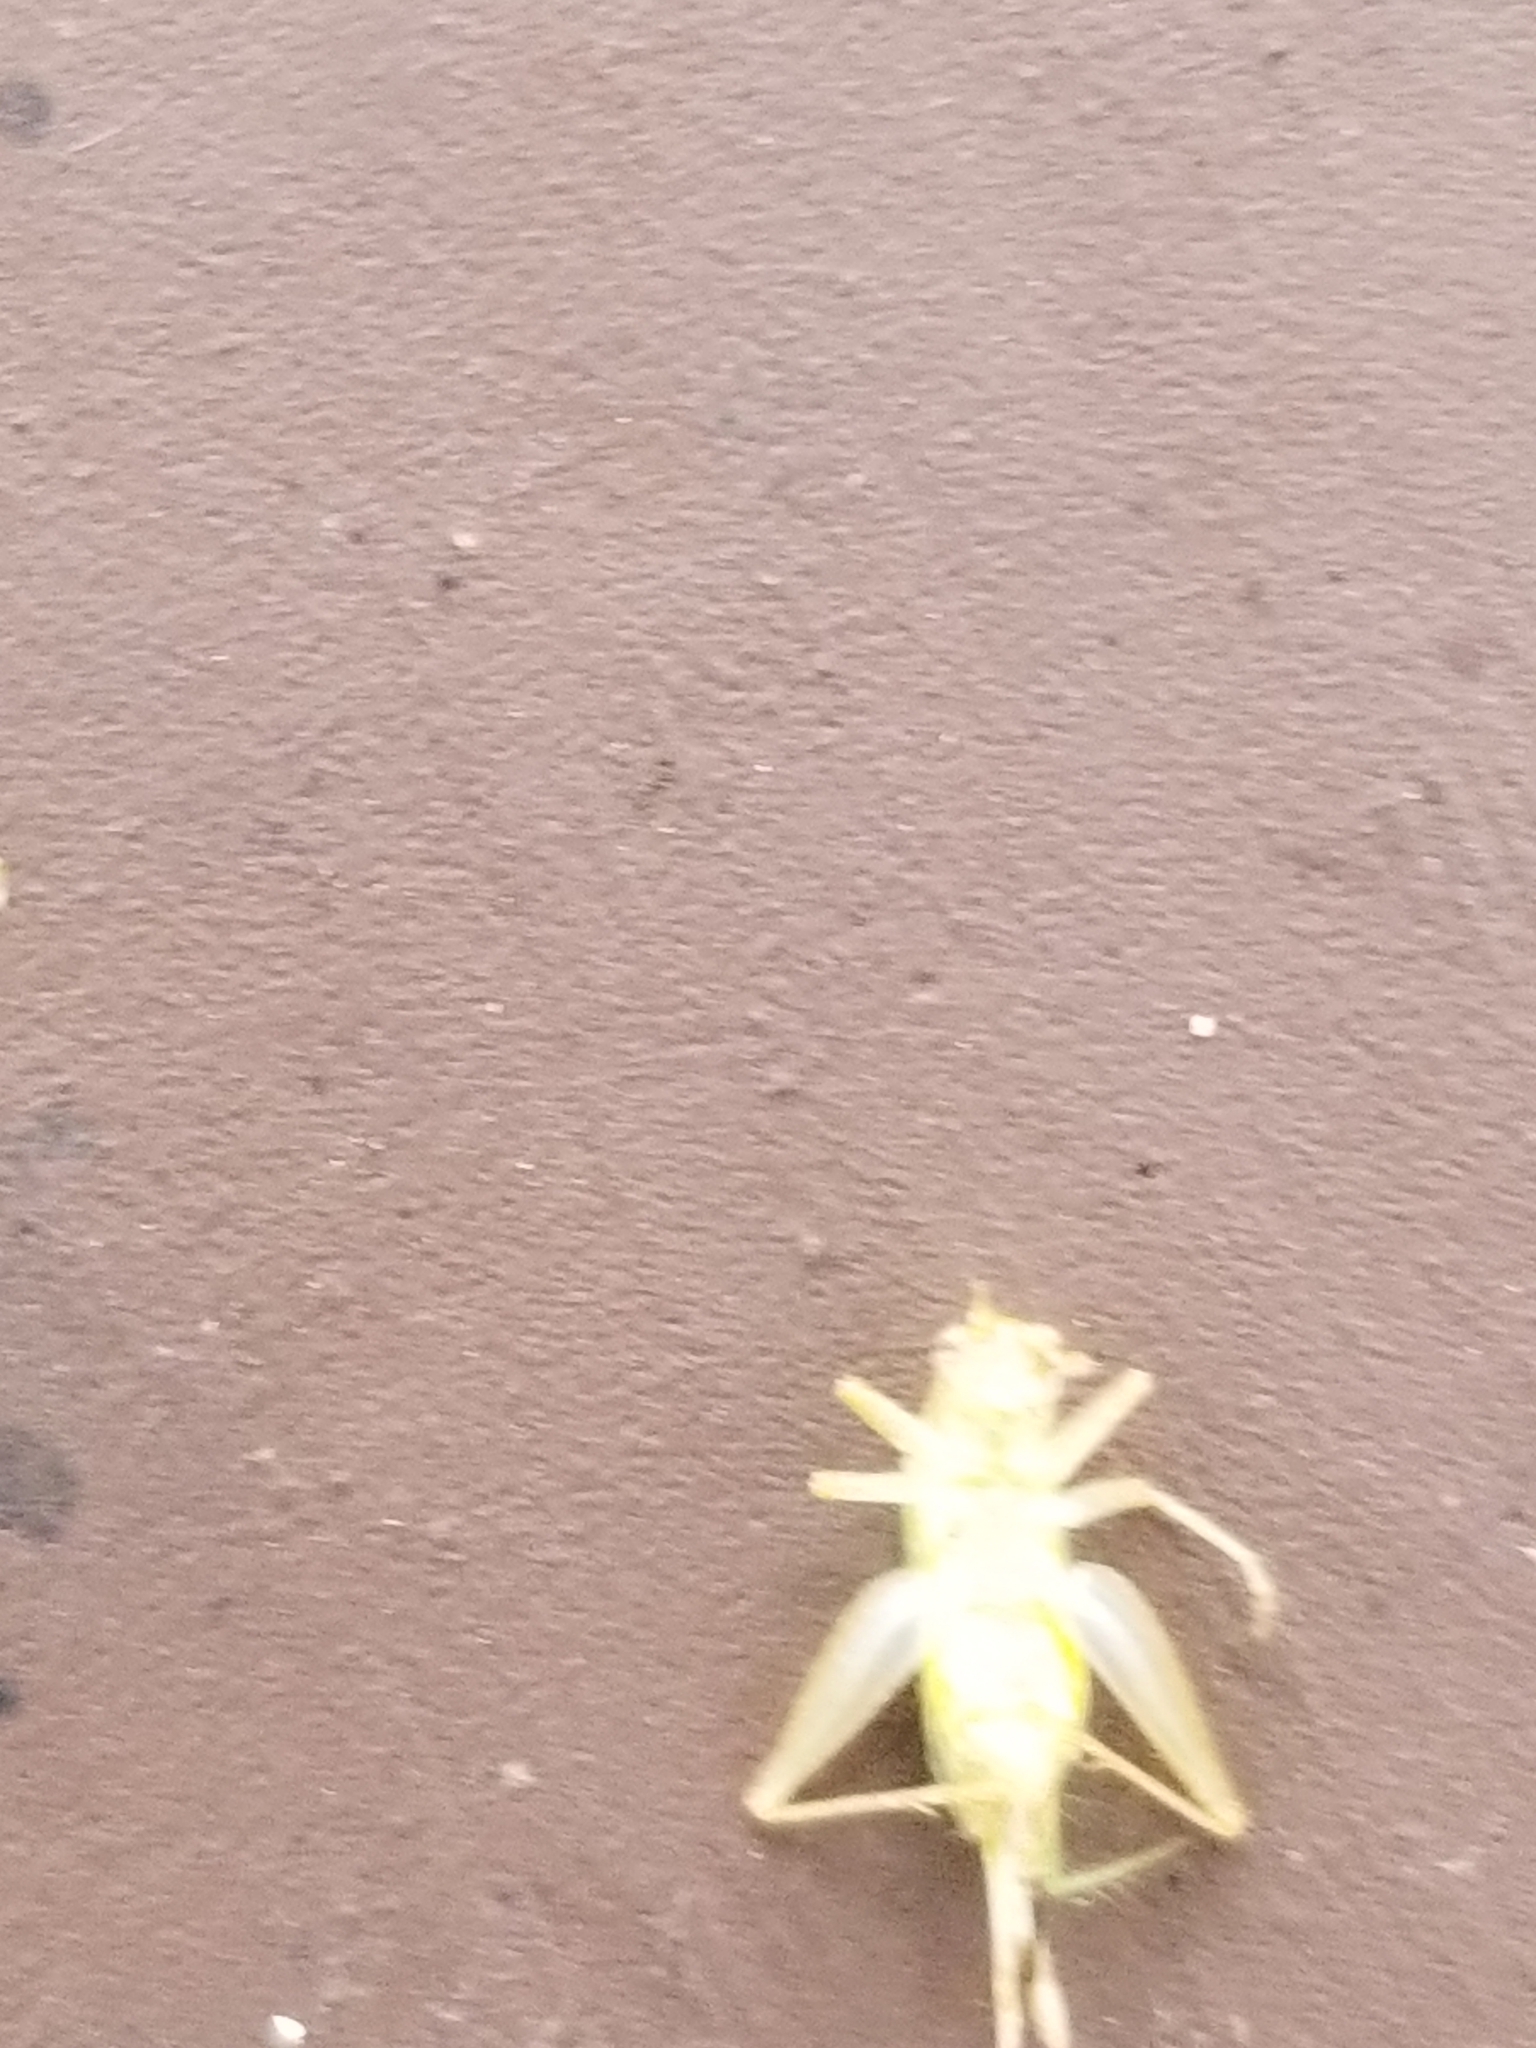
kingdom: Animalia
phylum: Arthropoda
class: Insecta
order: Orthoptera
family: Trigonidiidae
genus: Cyrtoxipha
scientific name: Cyrtoxipha columbiana
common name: Columbian trig
